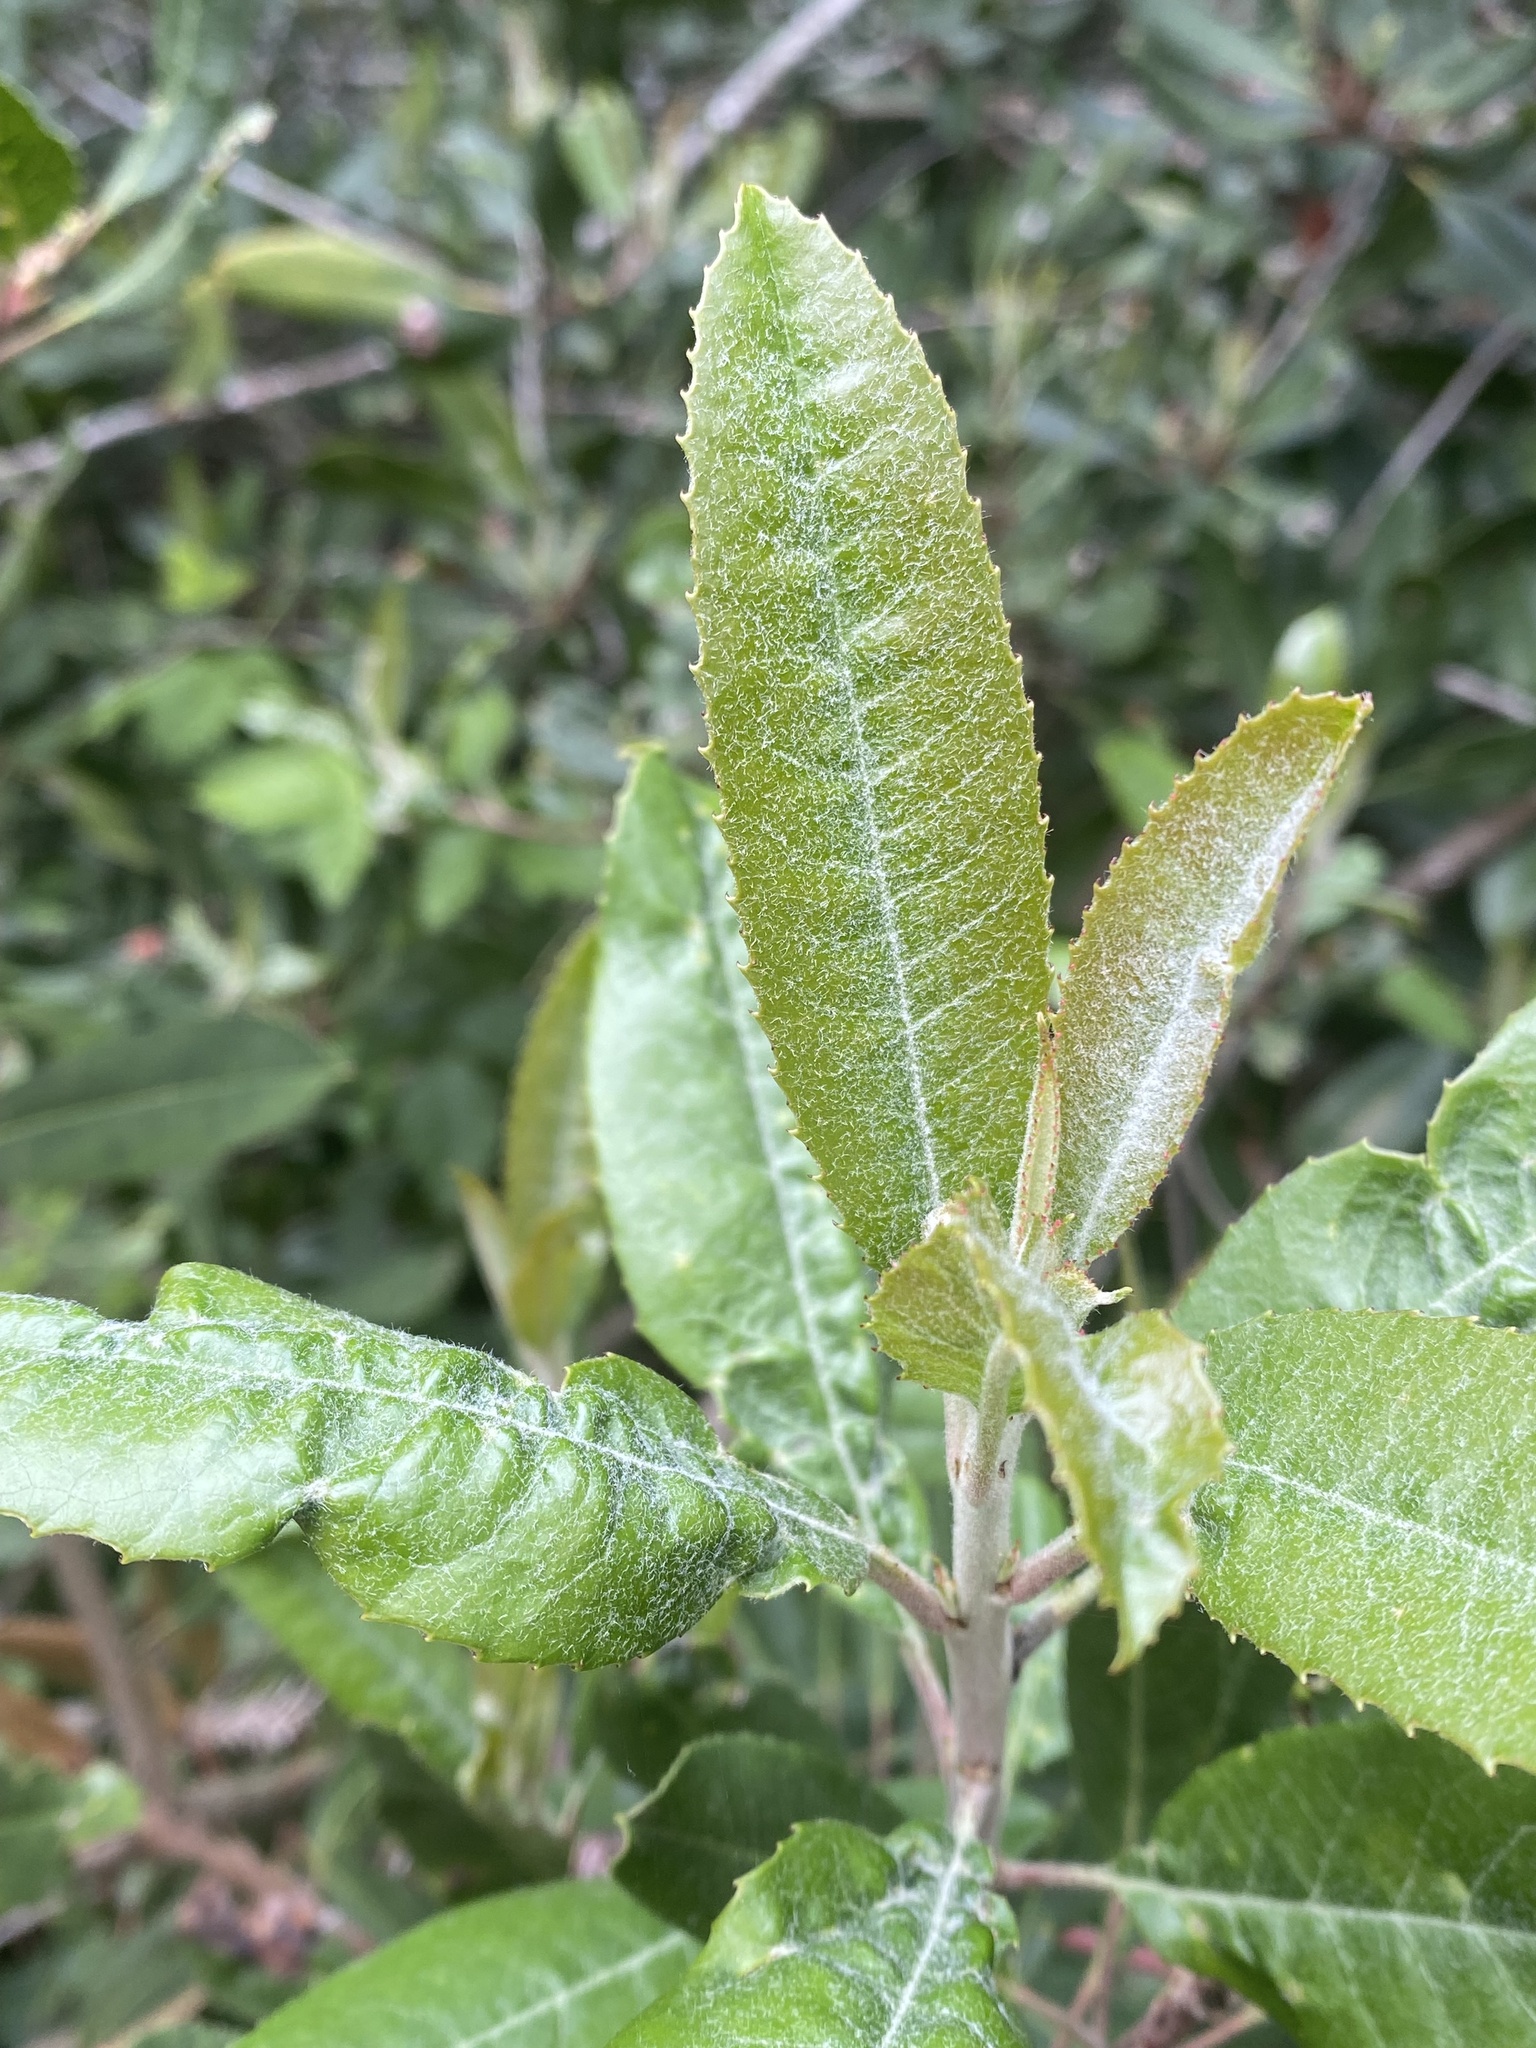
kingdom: Plantae
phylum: Tracheophyta
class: Magnoliopsida
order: Rosales
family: Rosaceae
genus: Heteromeles
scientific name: Heteromeles arbutifolia
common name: California-holly
